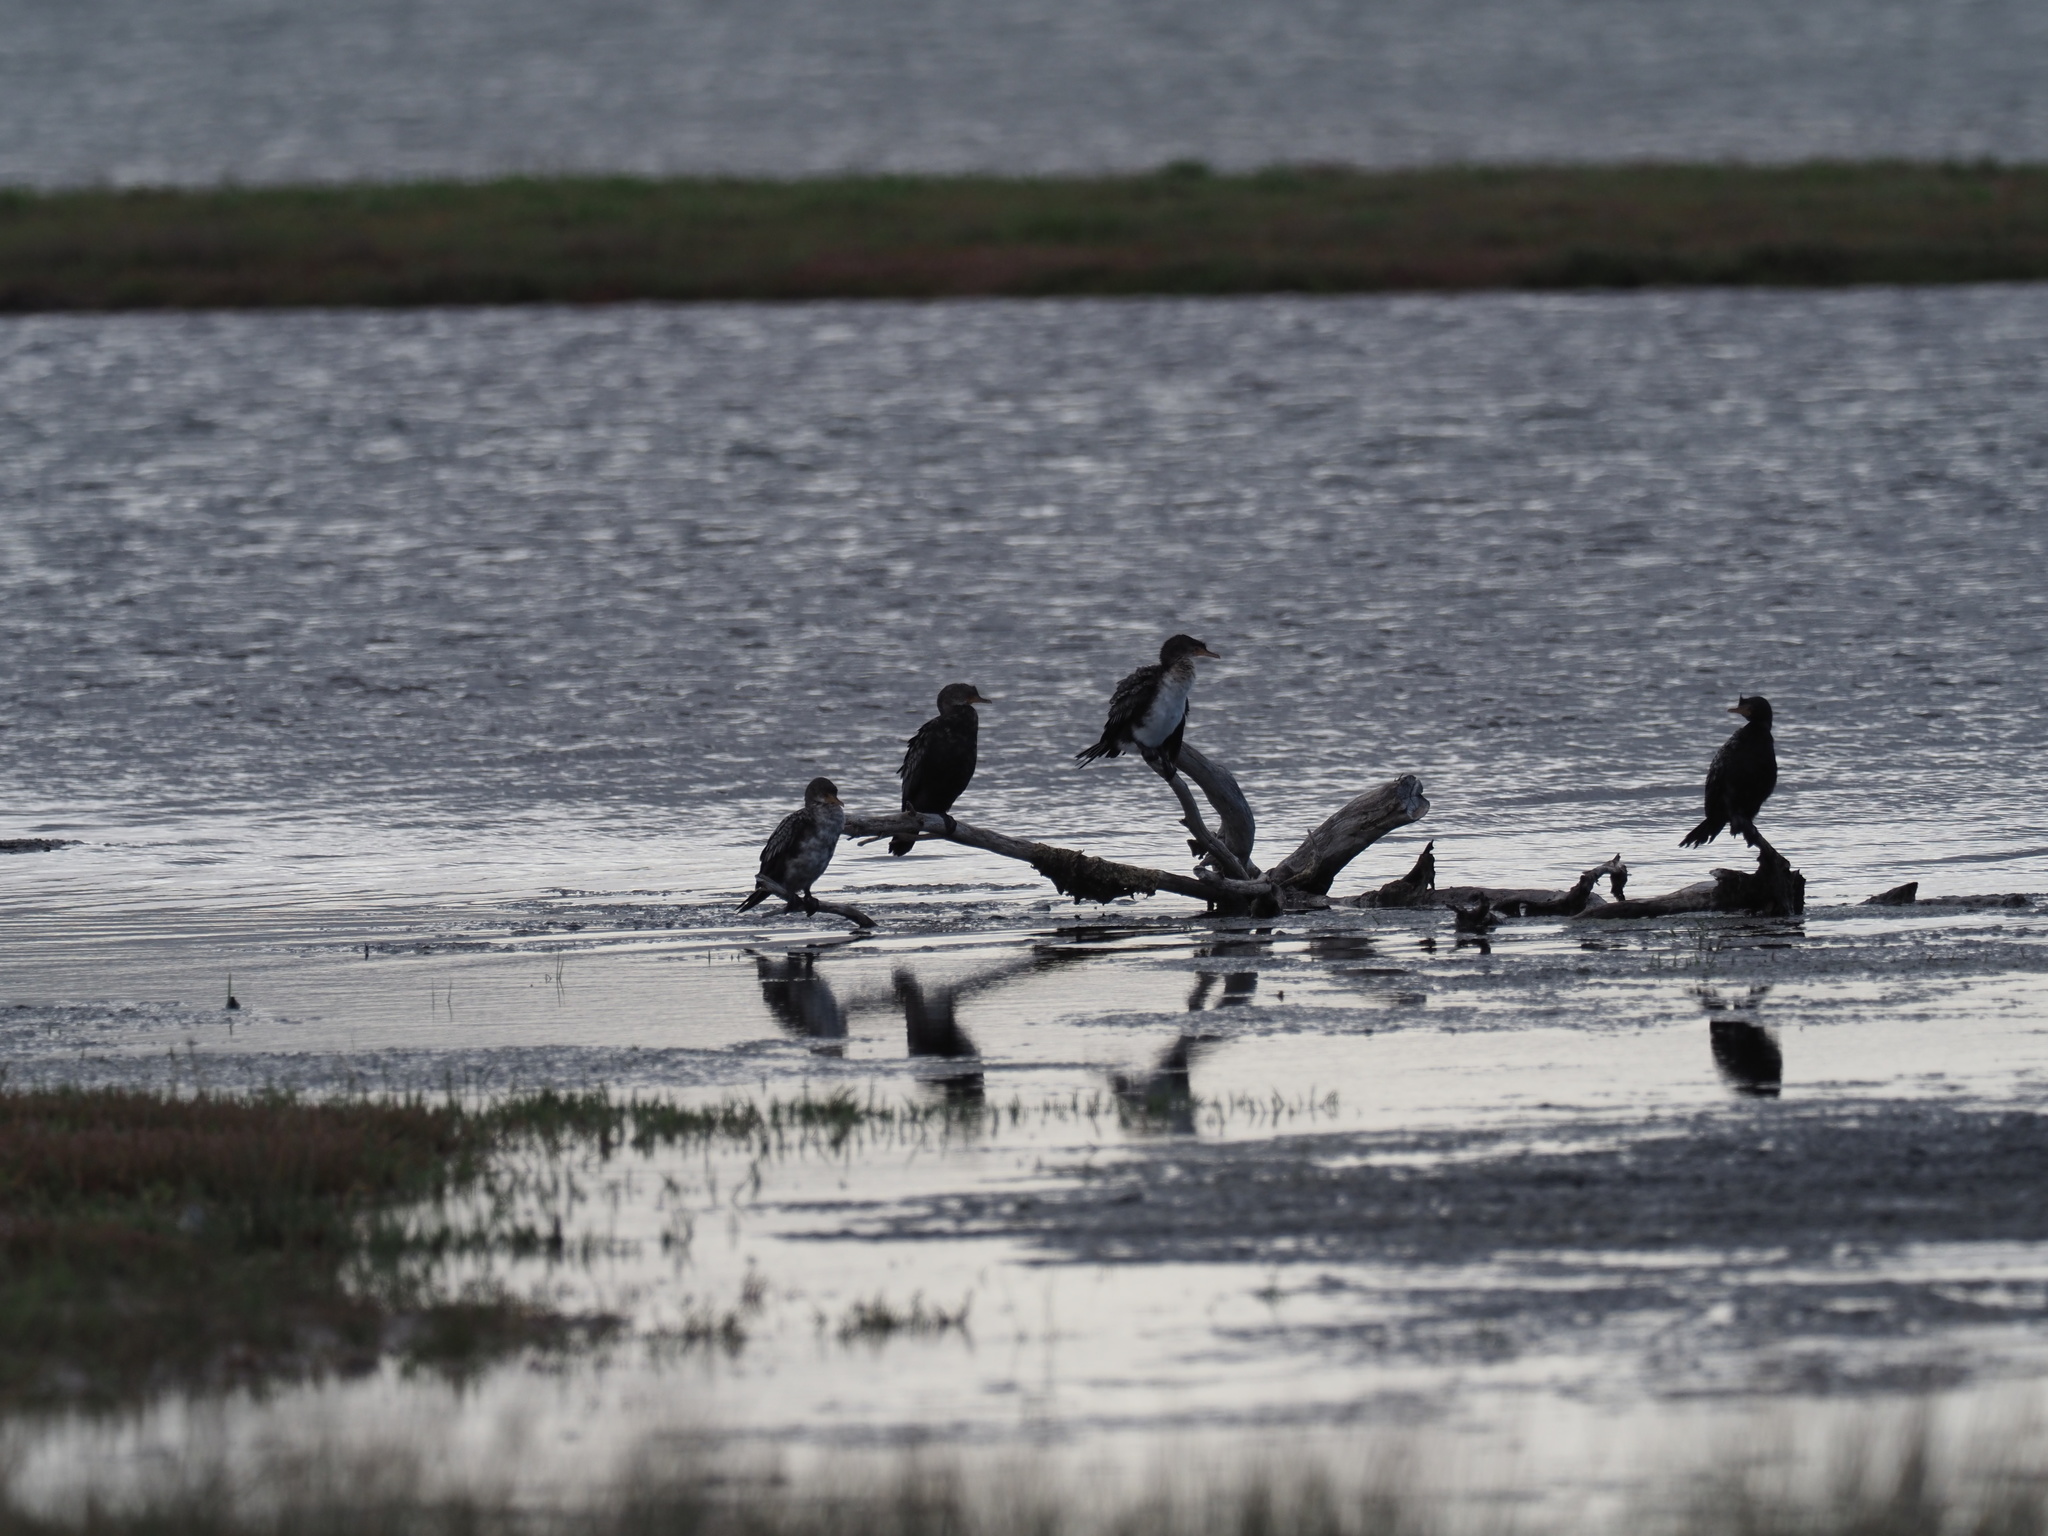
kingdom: Animalia
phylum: Chordata
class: Aves
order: Suliformes
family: Phalacrocoracidae
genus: Microcarbo
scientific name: Microcarbo africanus
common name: Long-tailed cormorant
